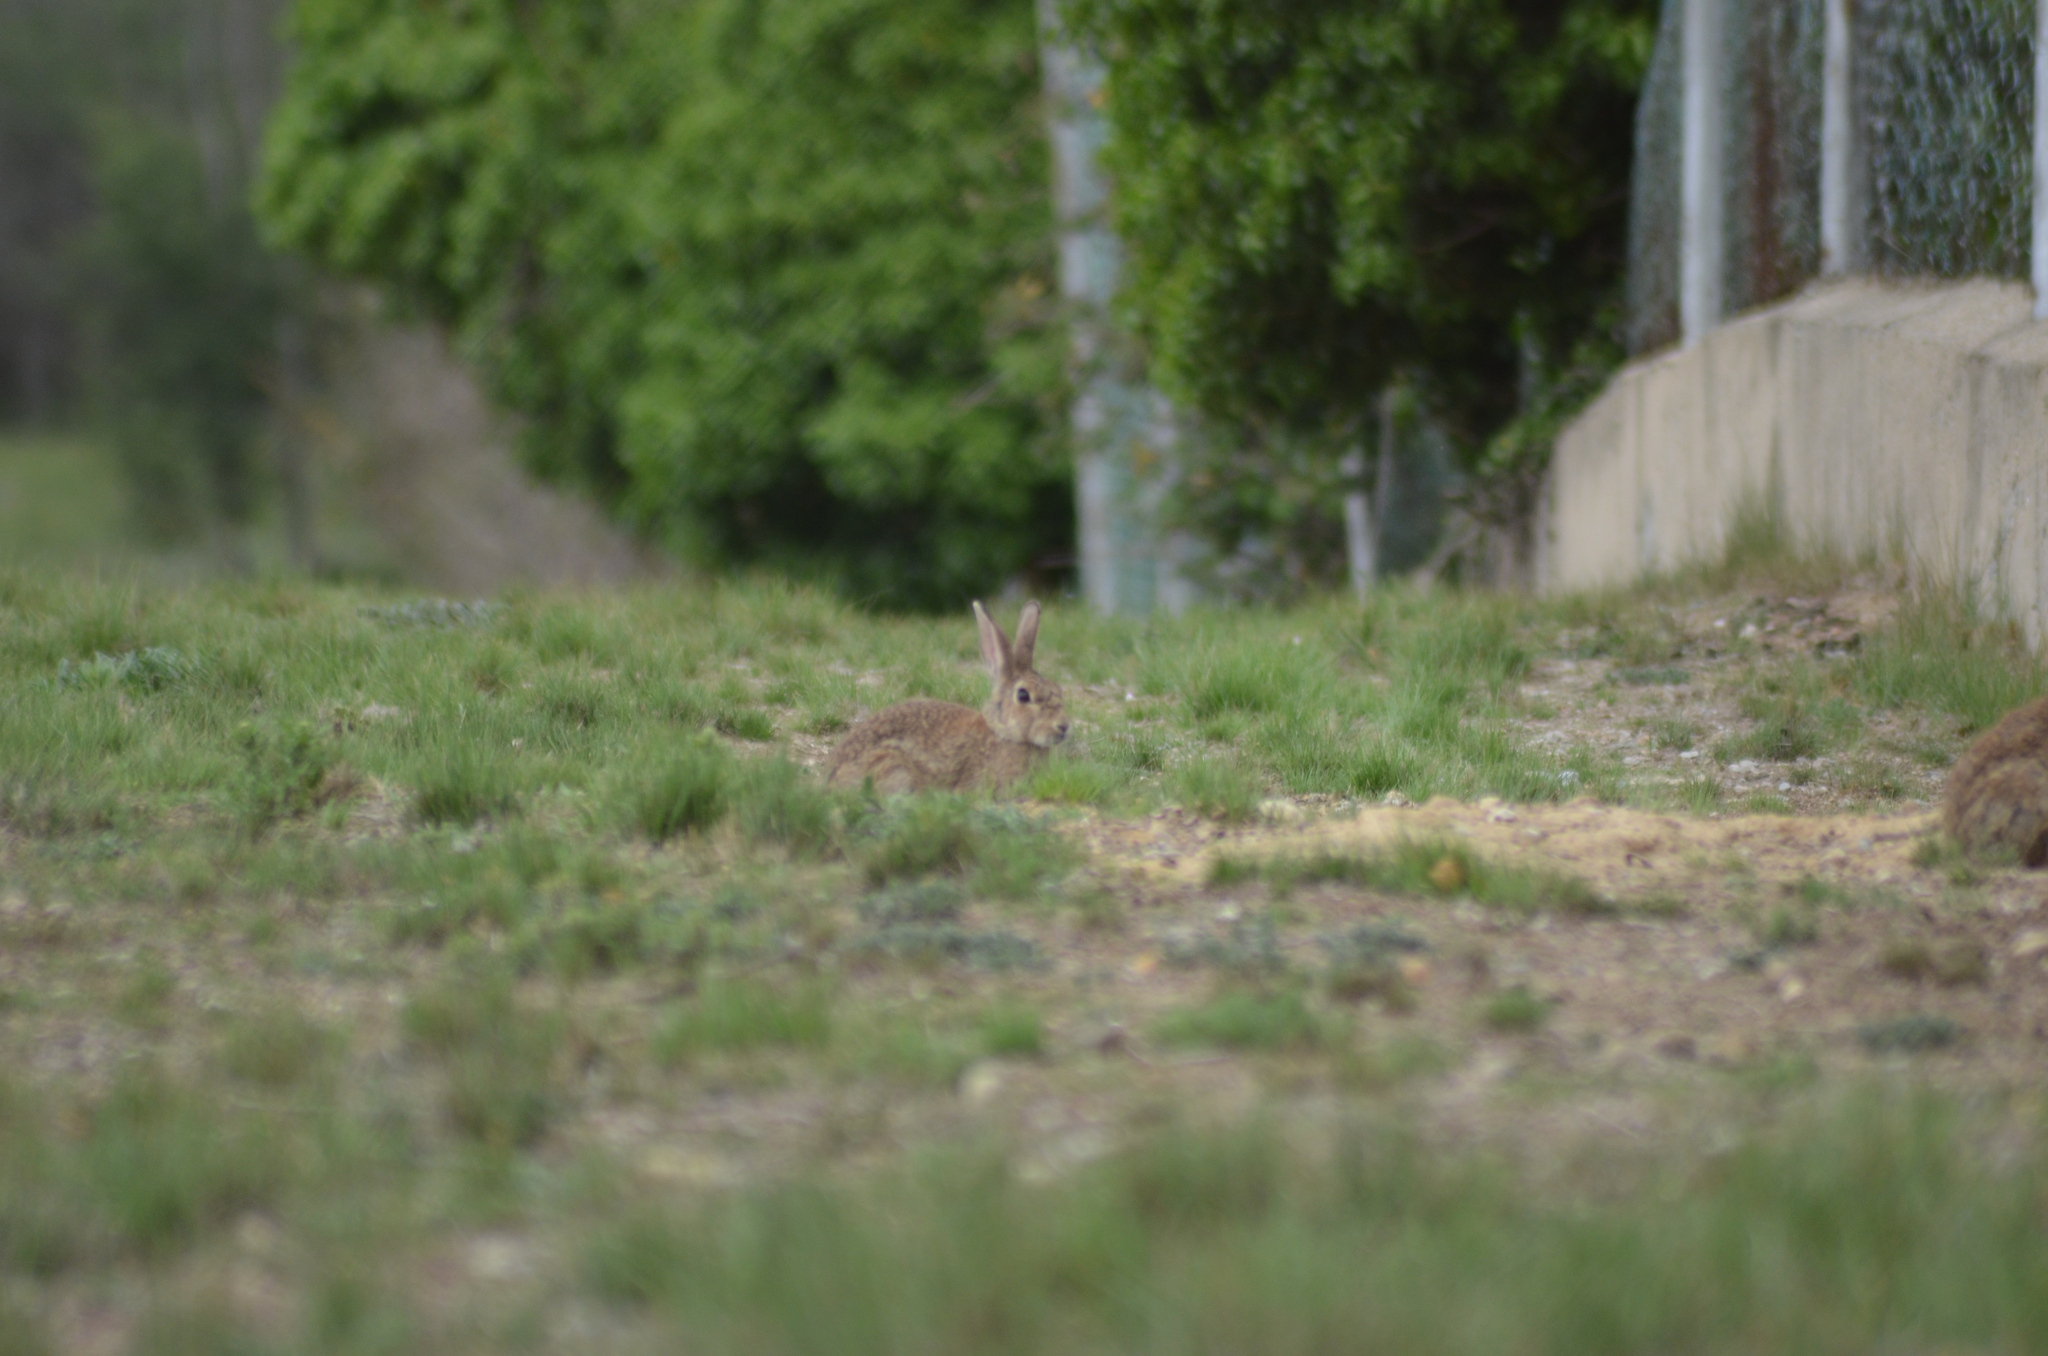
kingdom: Animalia
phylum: Chordata
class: Mammalia
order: Lagomorpha
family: Leporidae
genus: Oryctolagus
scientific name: Oryctolagus cuniculus
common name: European rabbit
